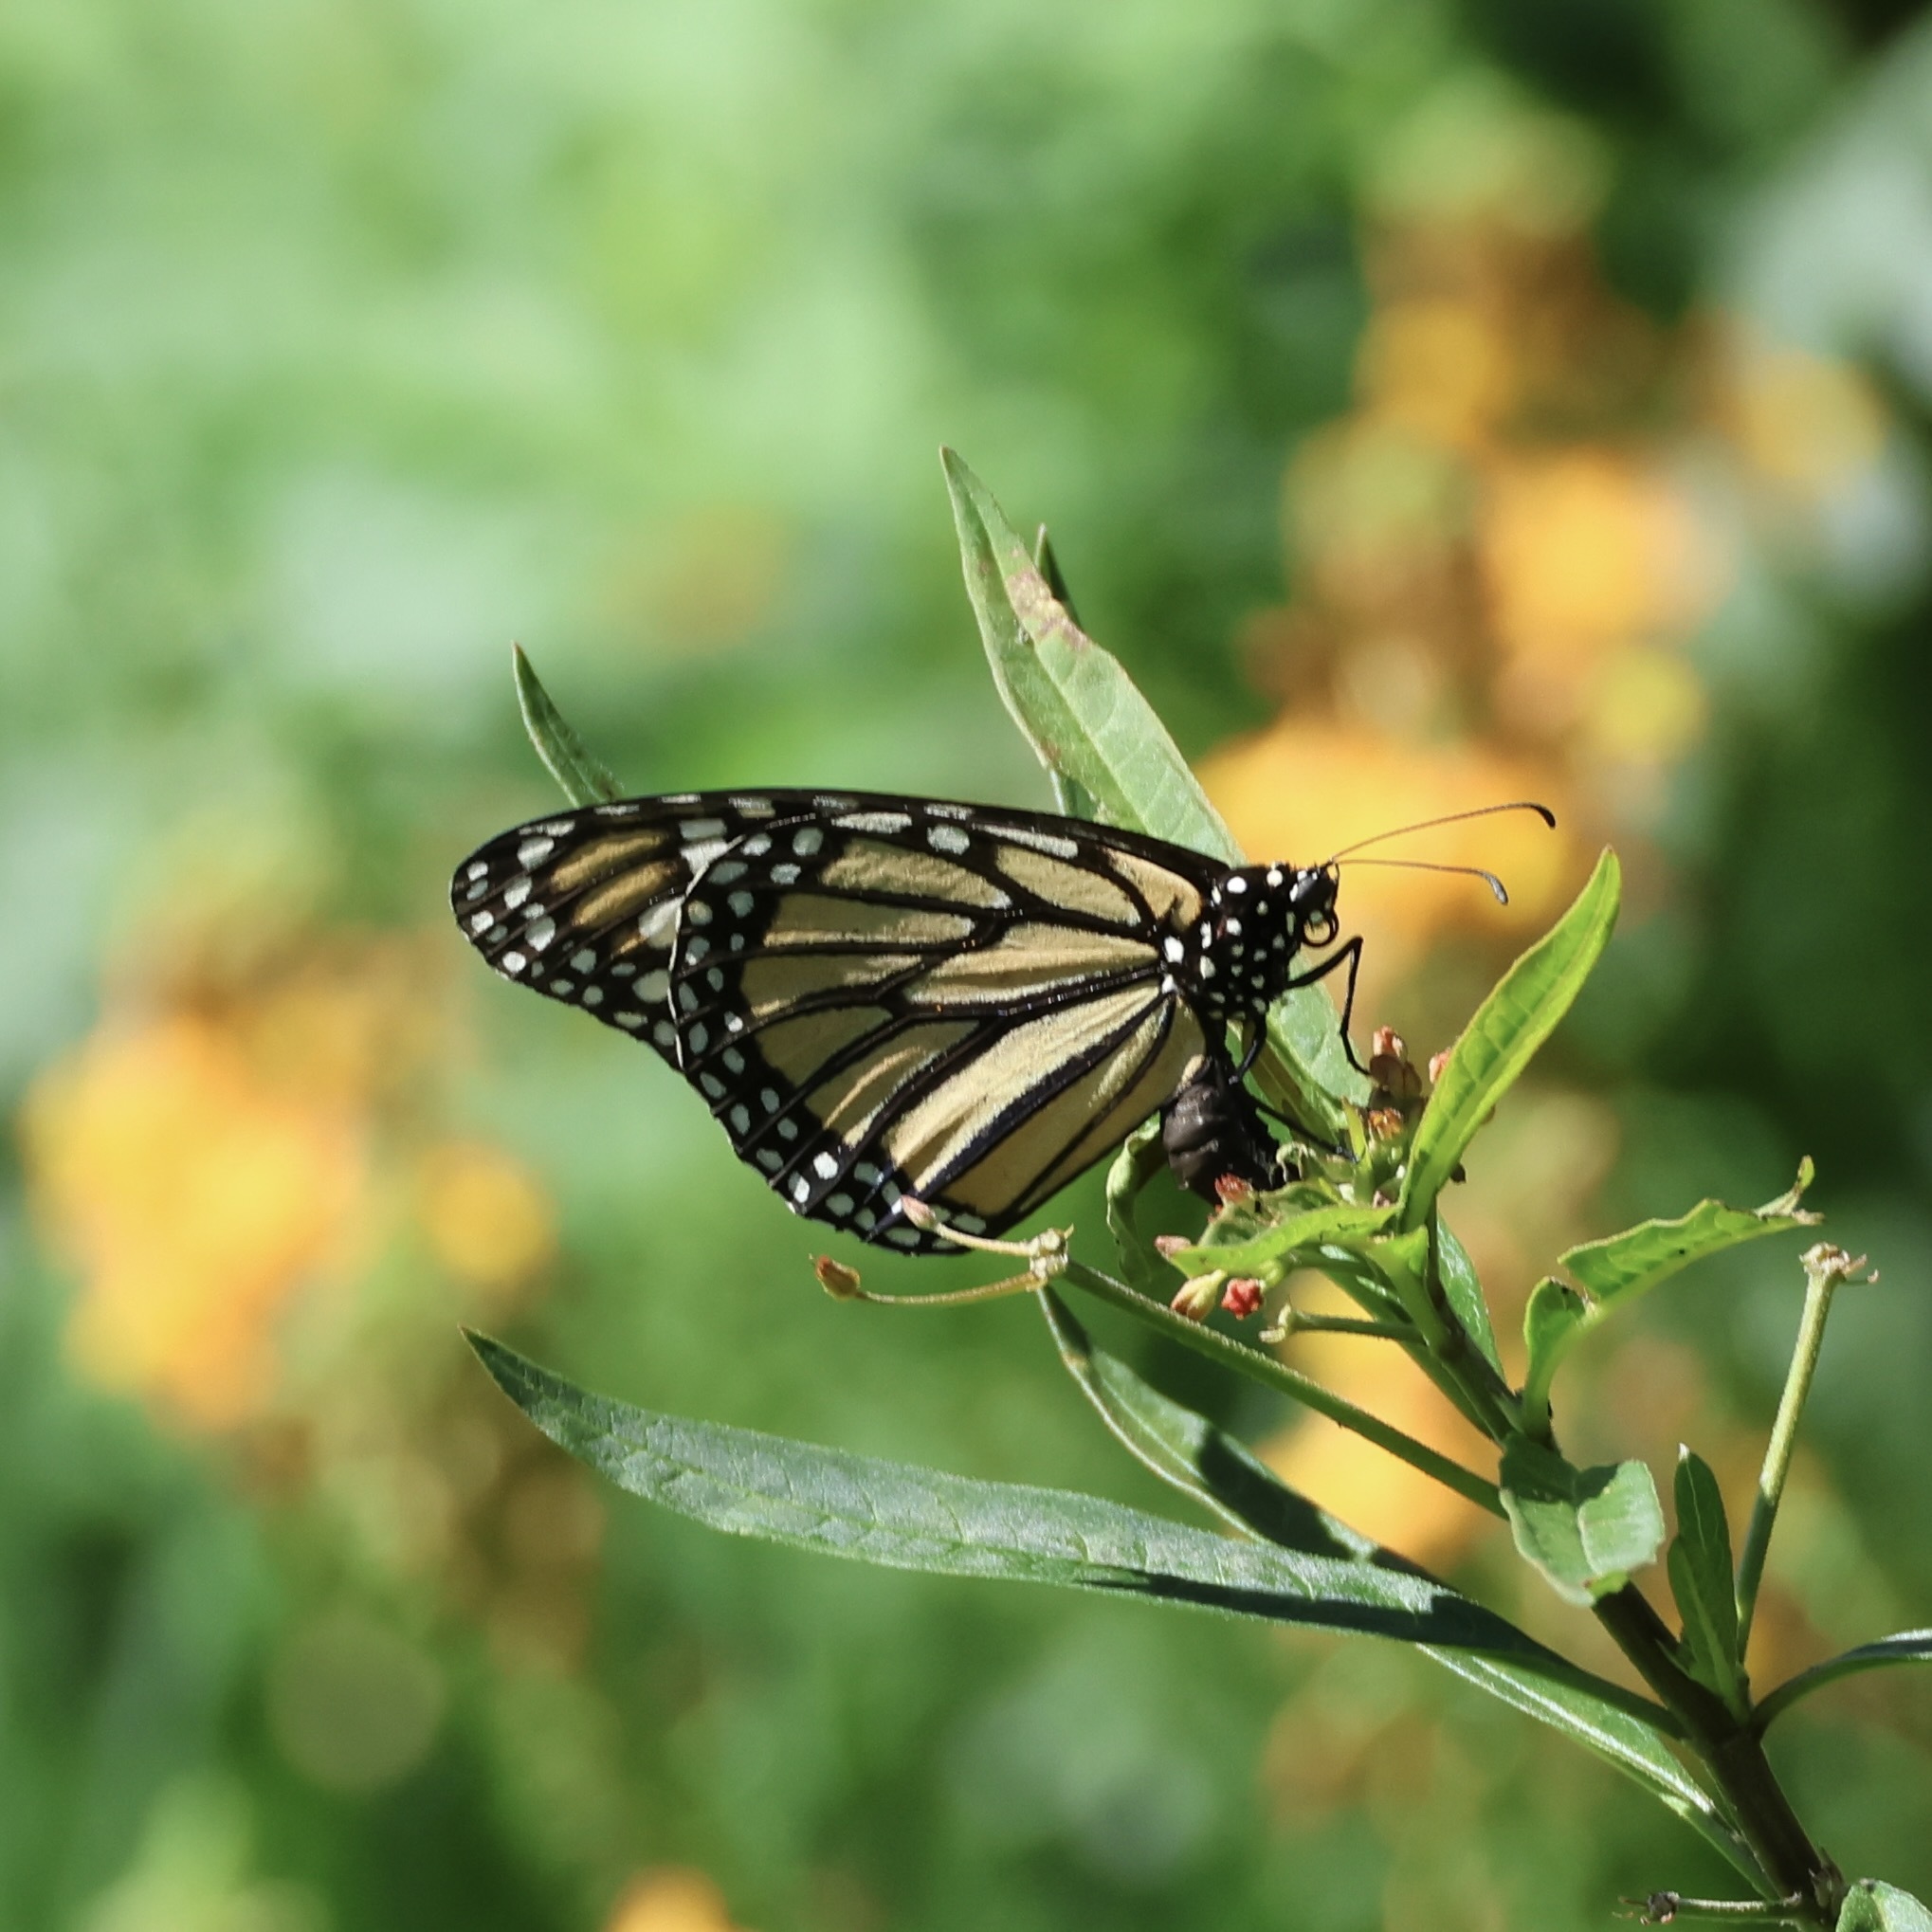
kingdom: Animalia
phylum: Arthropoda
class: Insecta
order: Lepidoptera
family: Nymphalidae
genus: Danaus
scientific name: Danaus plexippus
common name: Monarch
